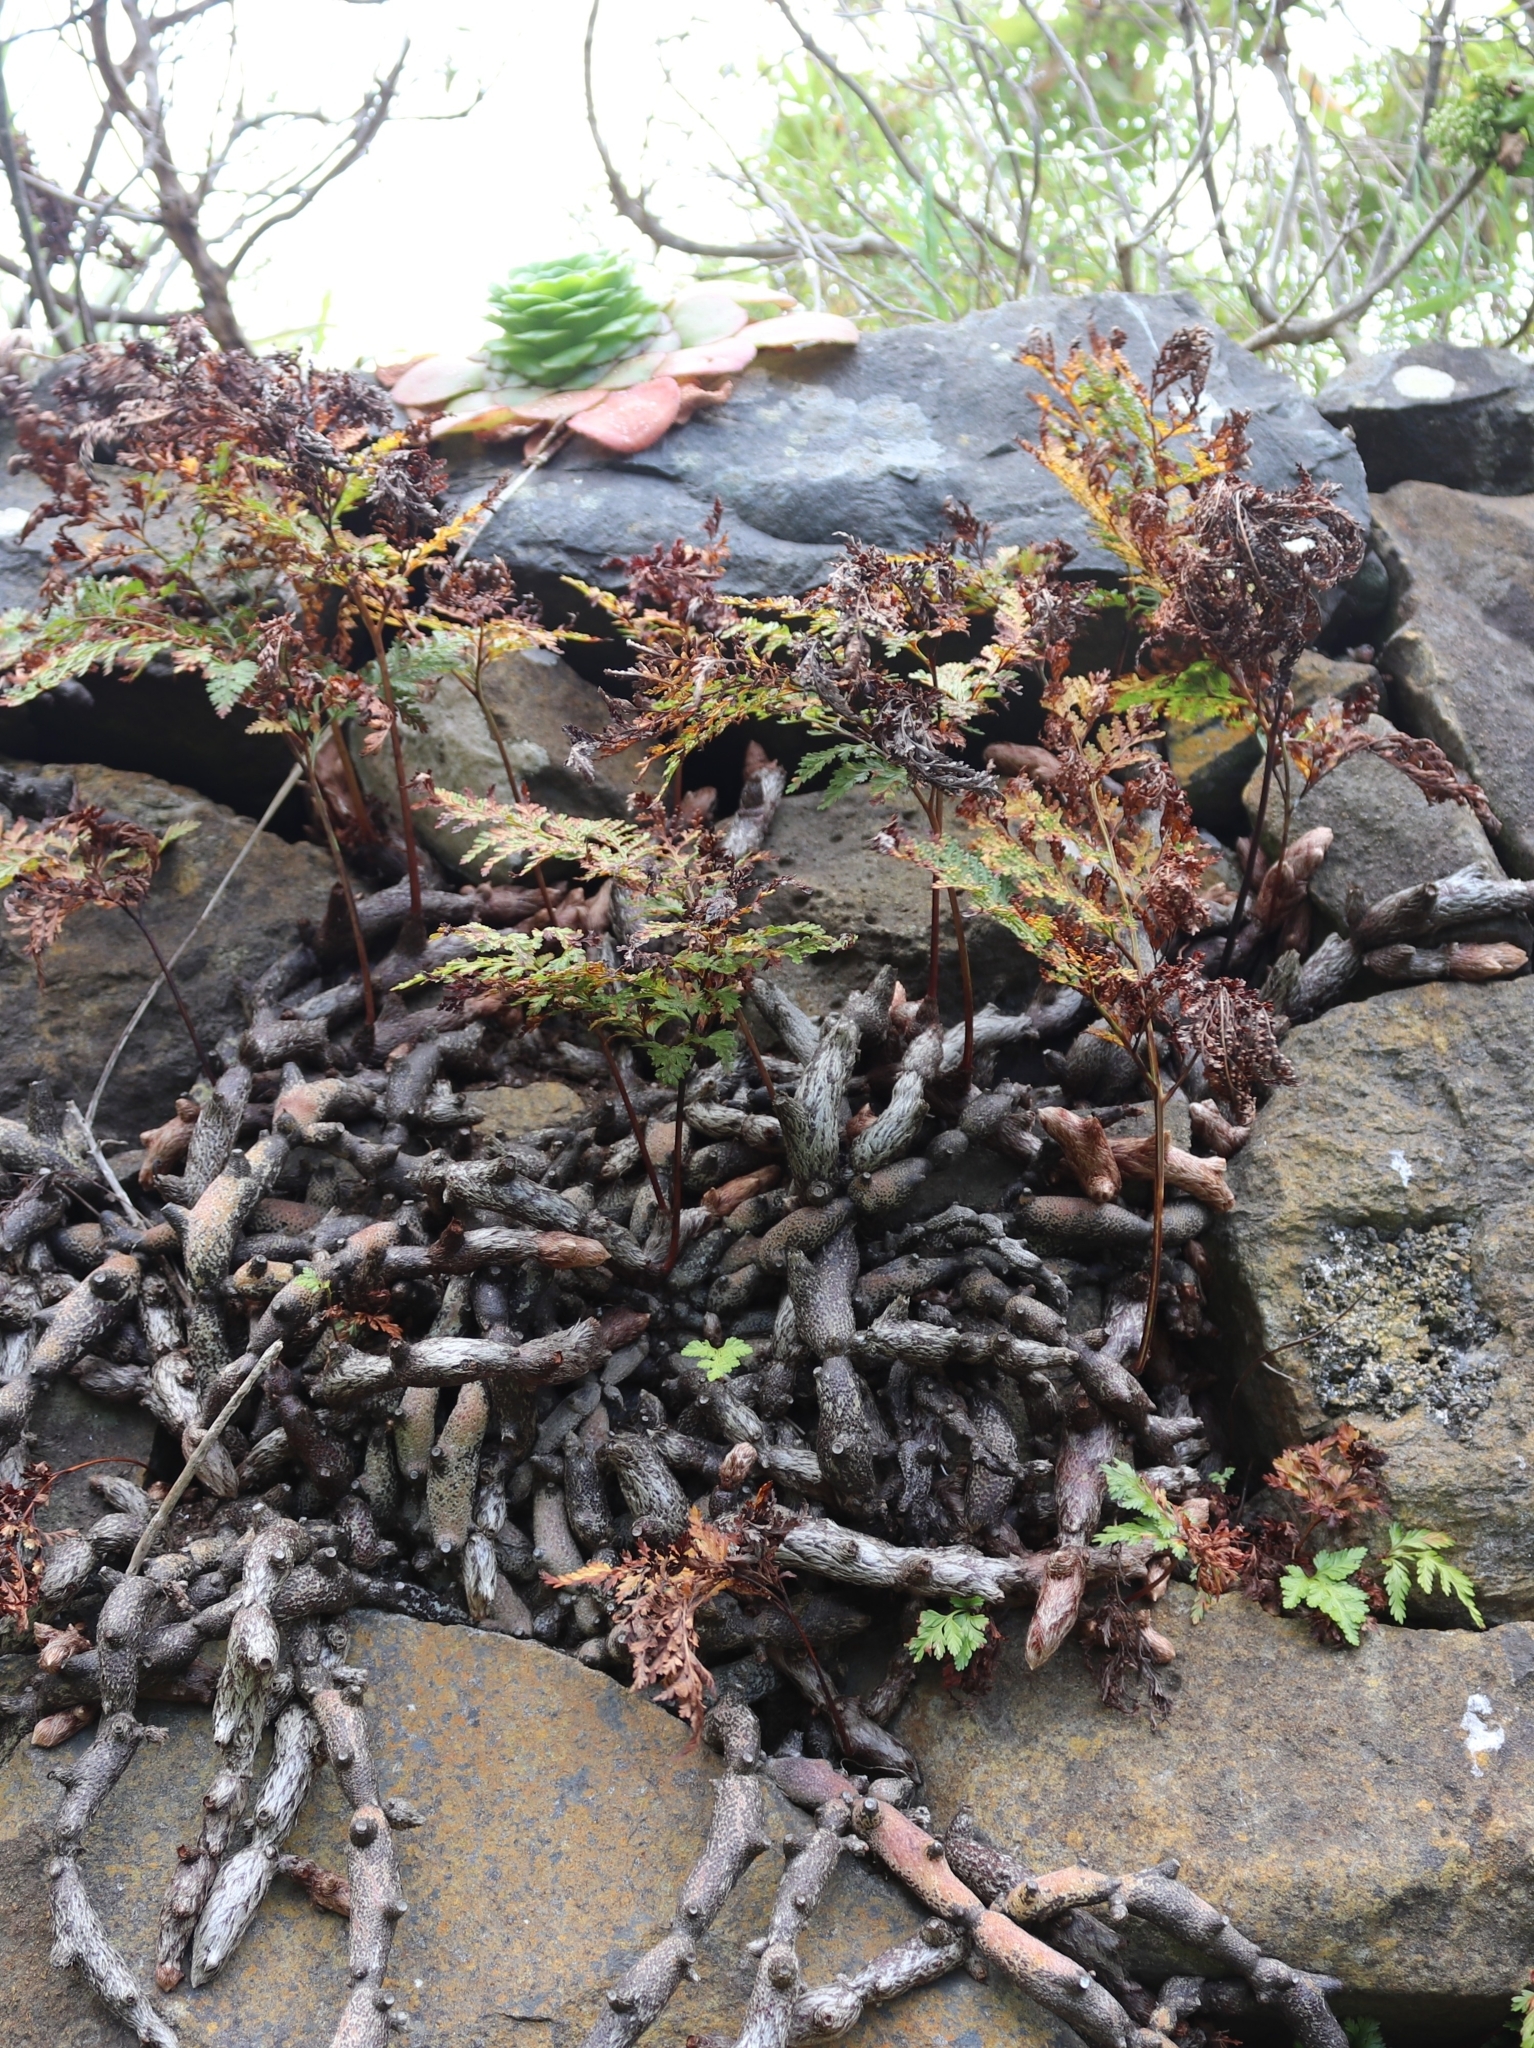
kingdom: Plantae
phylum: Tracheophyta
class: Polypodiopsida
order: Polypodiales
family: Davalliaceae
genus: Davallia
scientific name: Davallia canariensis
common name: Hare's-foot fern
